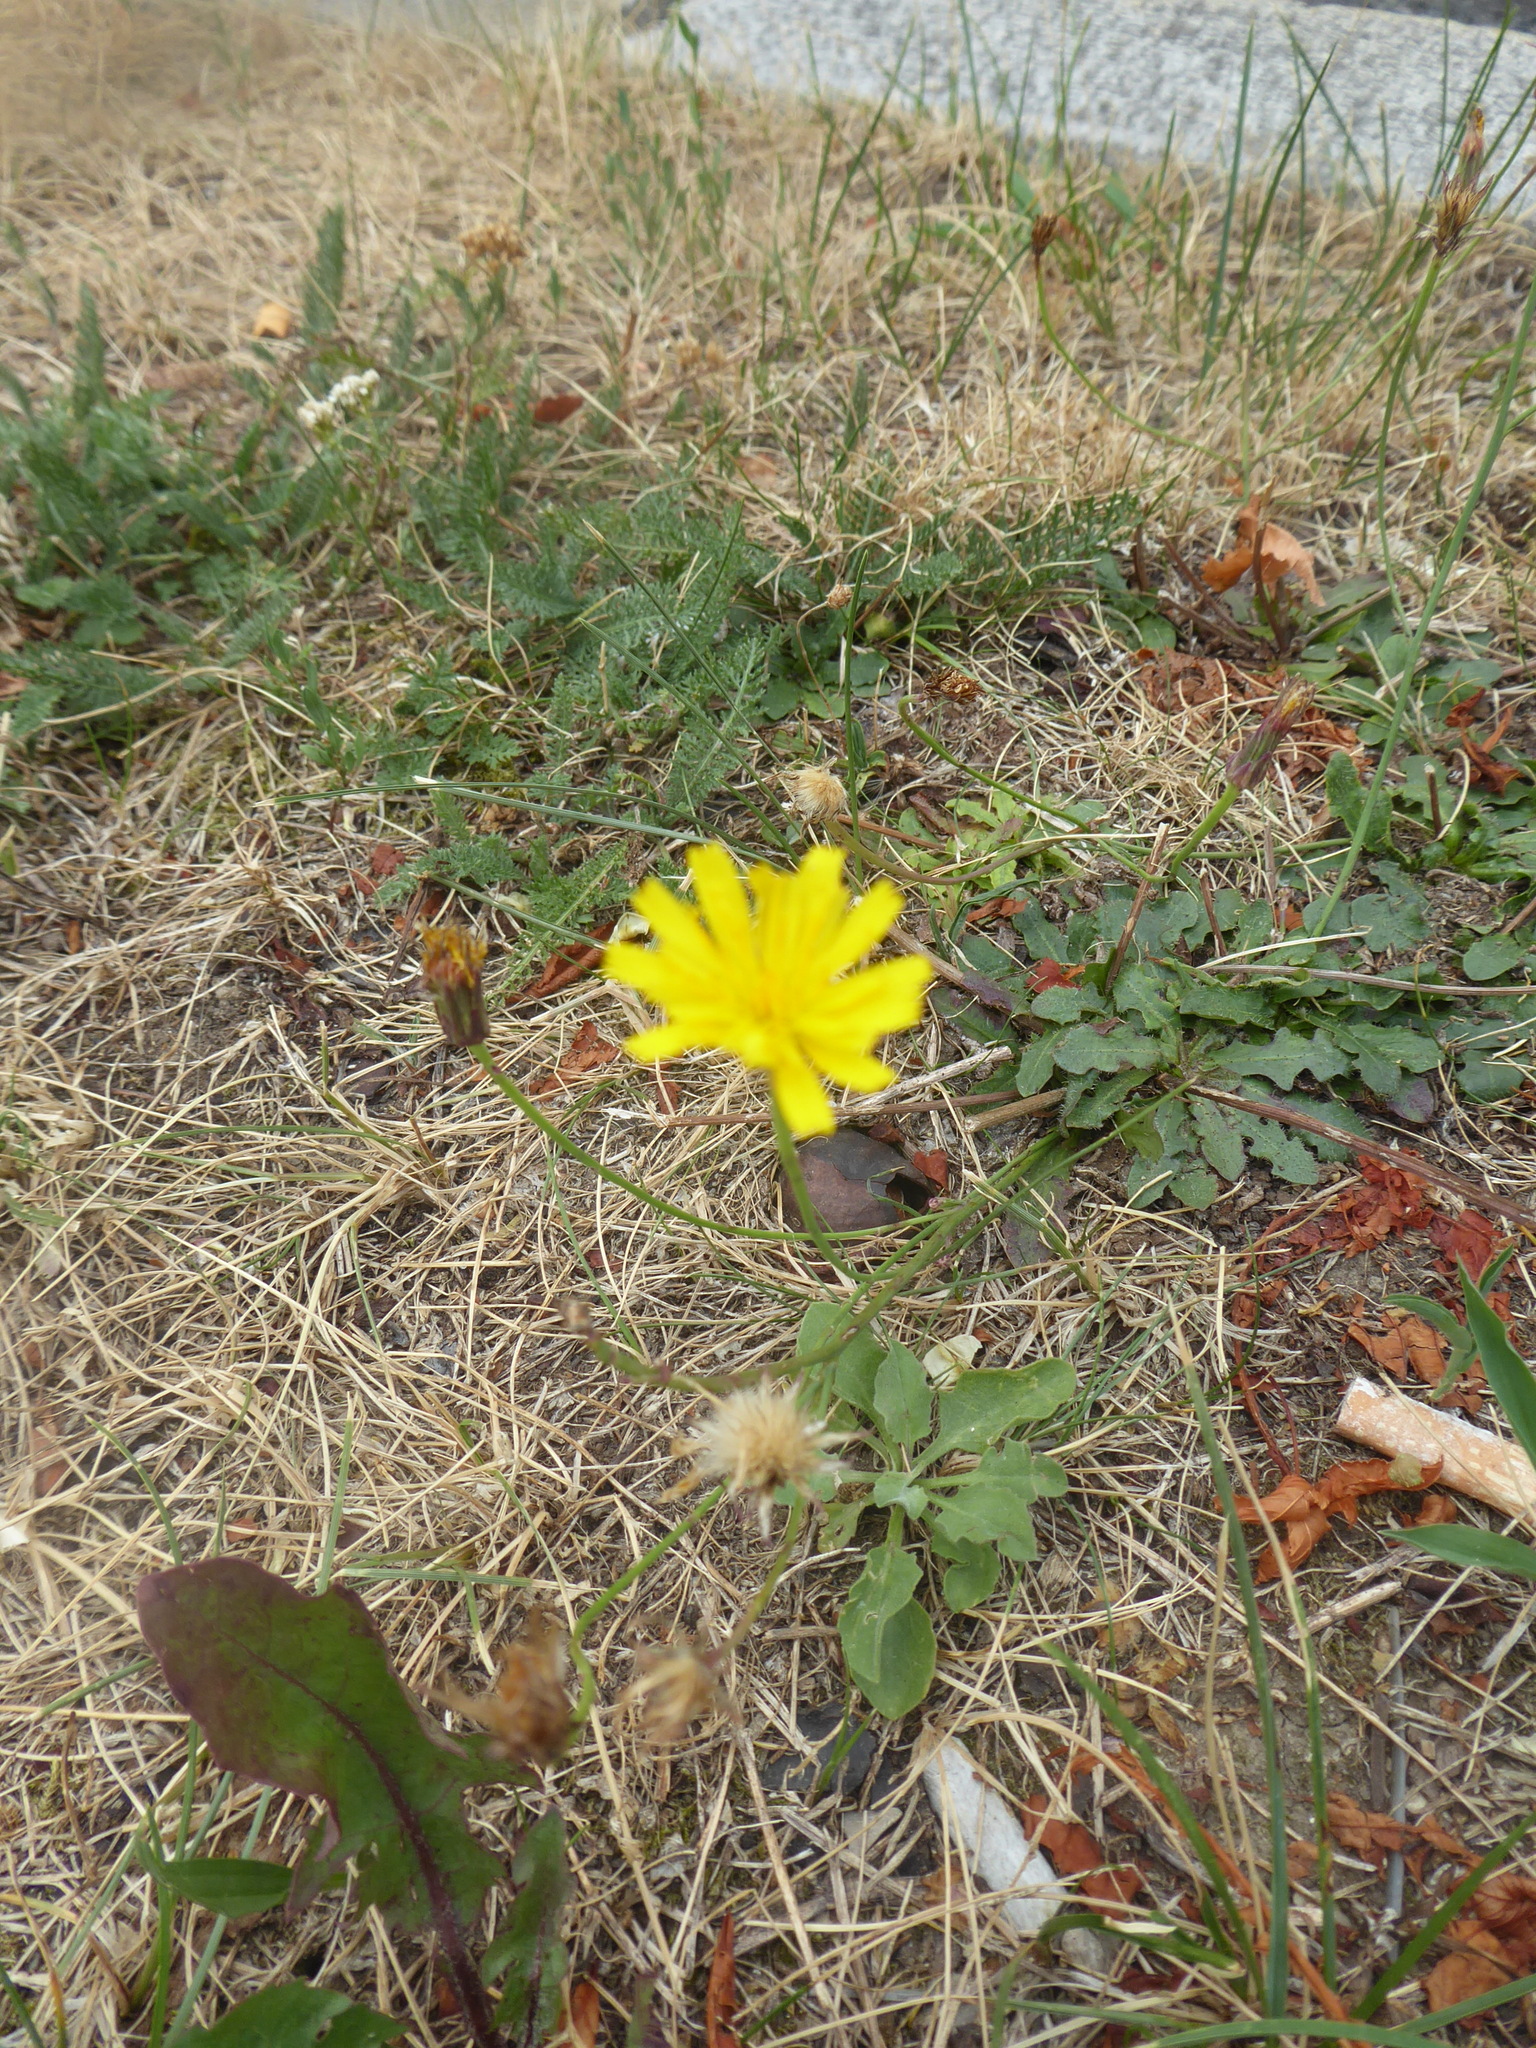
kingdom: Plantae
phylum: Tracheophyta
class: Magnoliopsida
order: Asterales
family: Asteraceae
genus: Hypochaeris
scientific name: Hypochaeris radicata
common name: Flatweed
